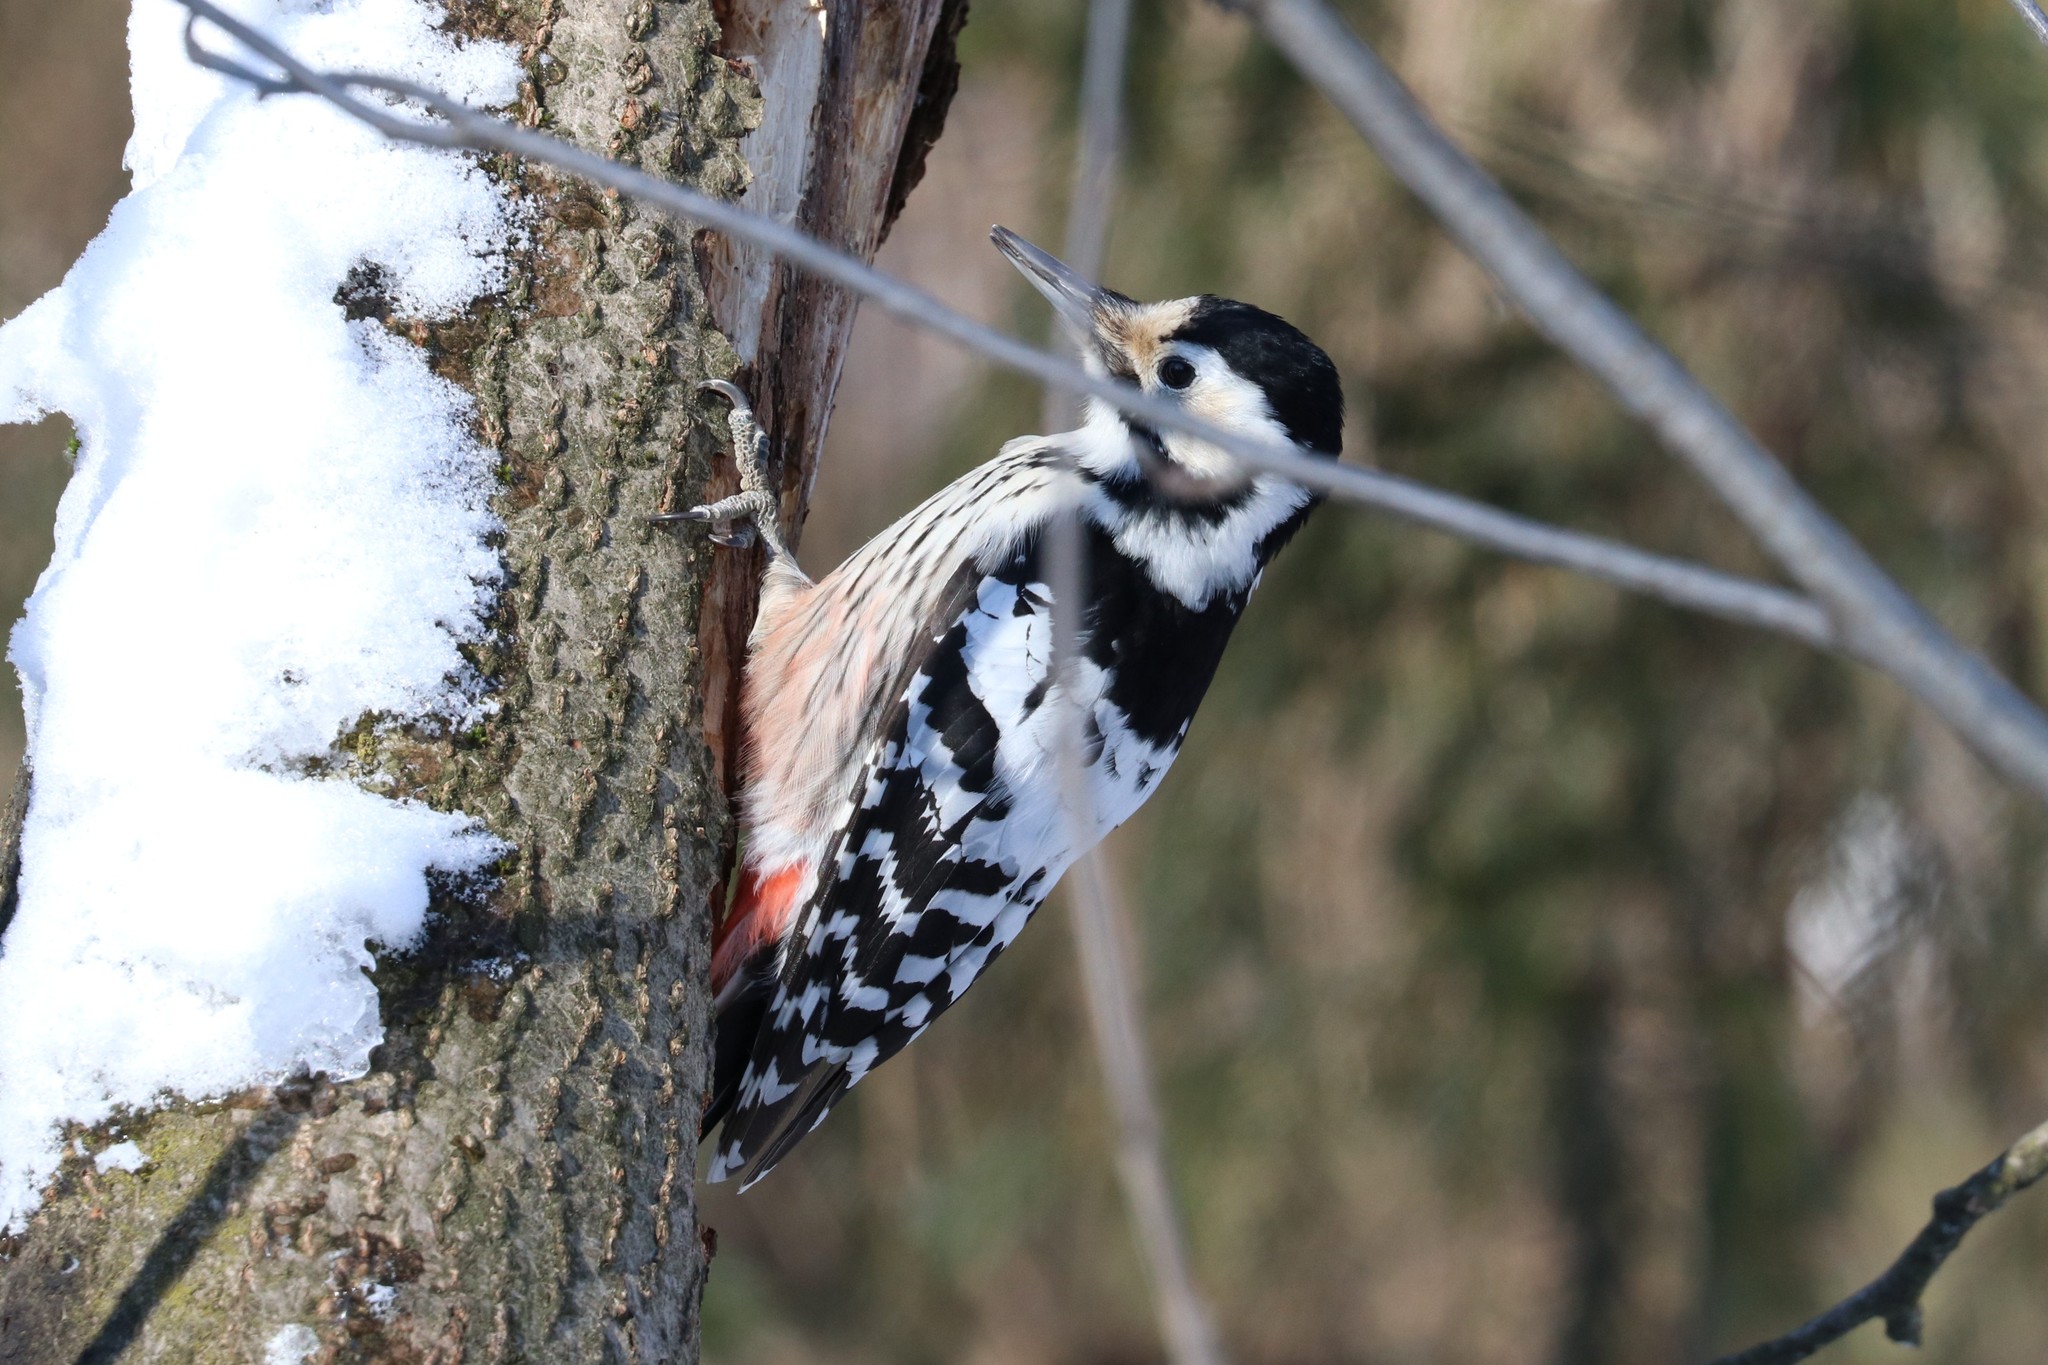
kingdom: Animalia
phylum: Chordata
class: Aves
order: Piciformes
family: Picidae
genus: Dendrocopos
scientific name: Dendrocopos leucotos
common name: White-backed woodpecker
